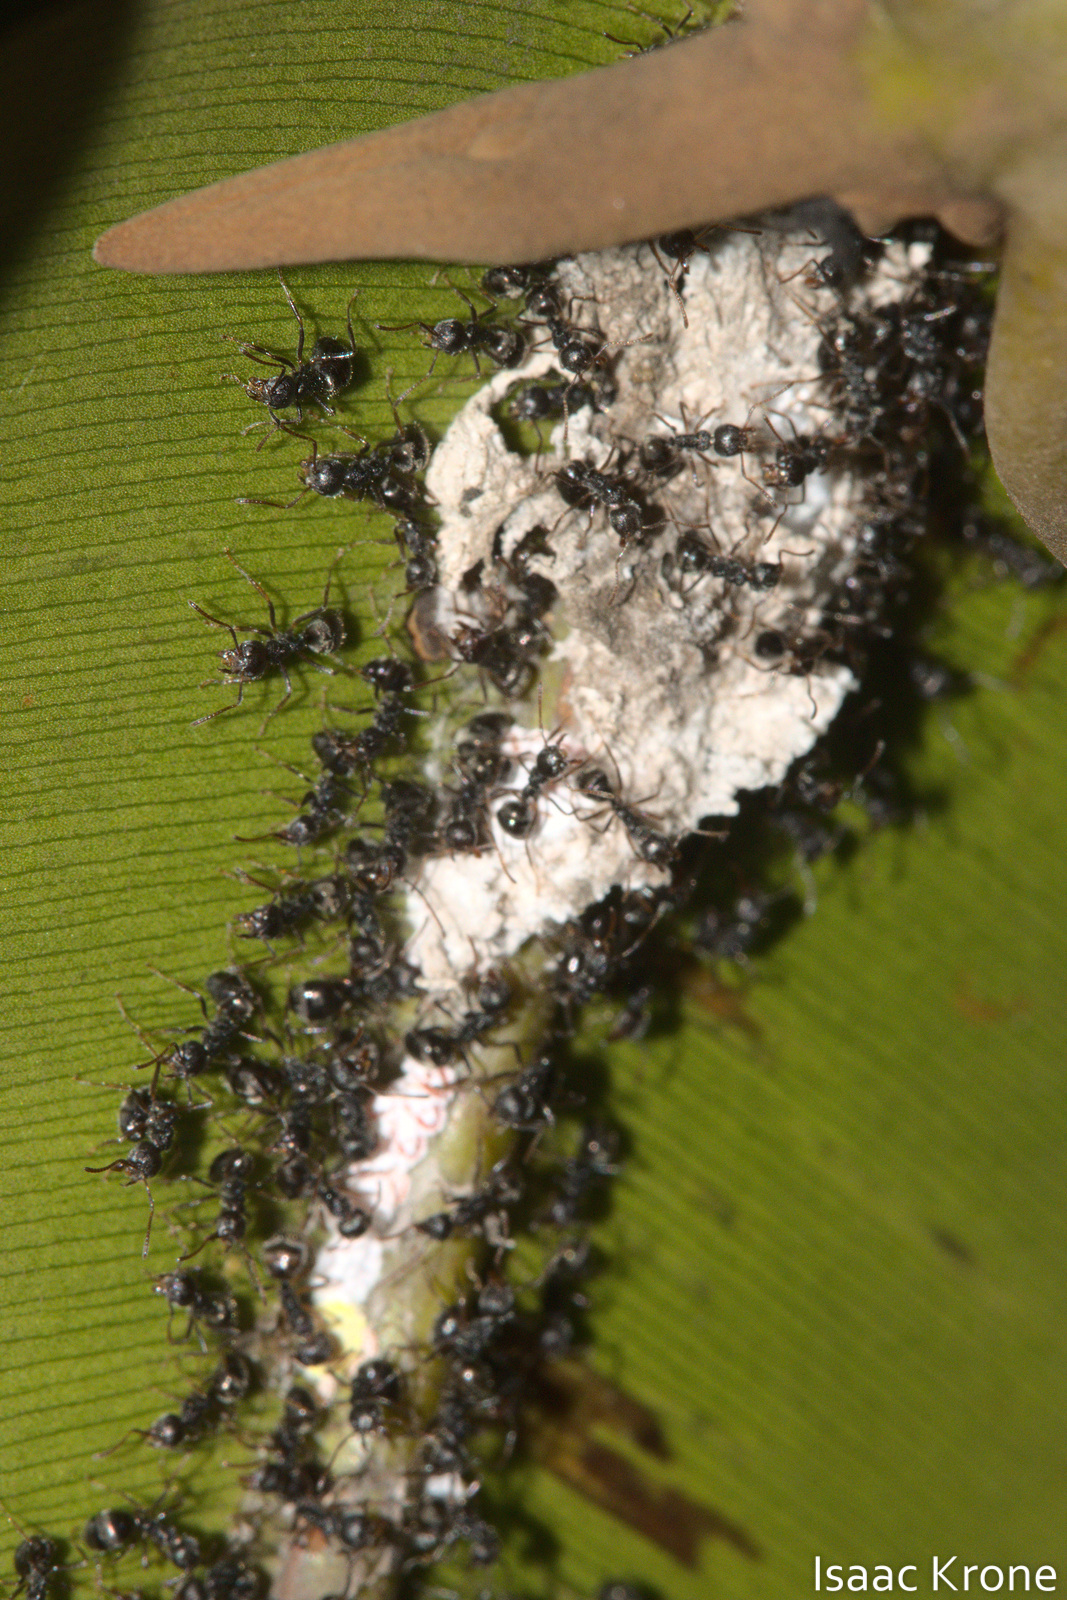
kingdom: Animalia
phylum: Arthropoda
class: Insecta
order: Hymenoptera
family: Formicidae
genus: Dolichoderus
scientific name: Dolichoderus thoracicus
